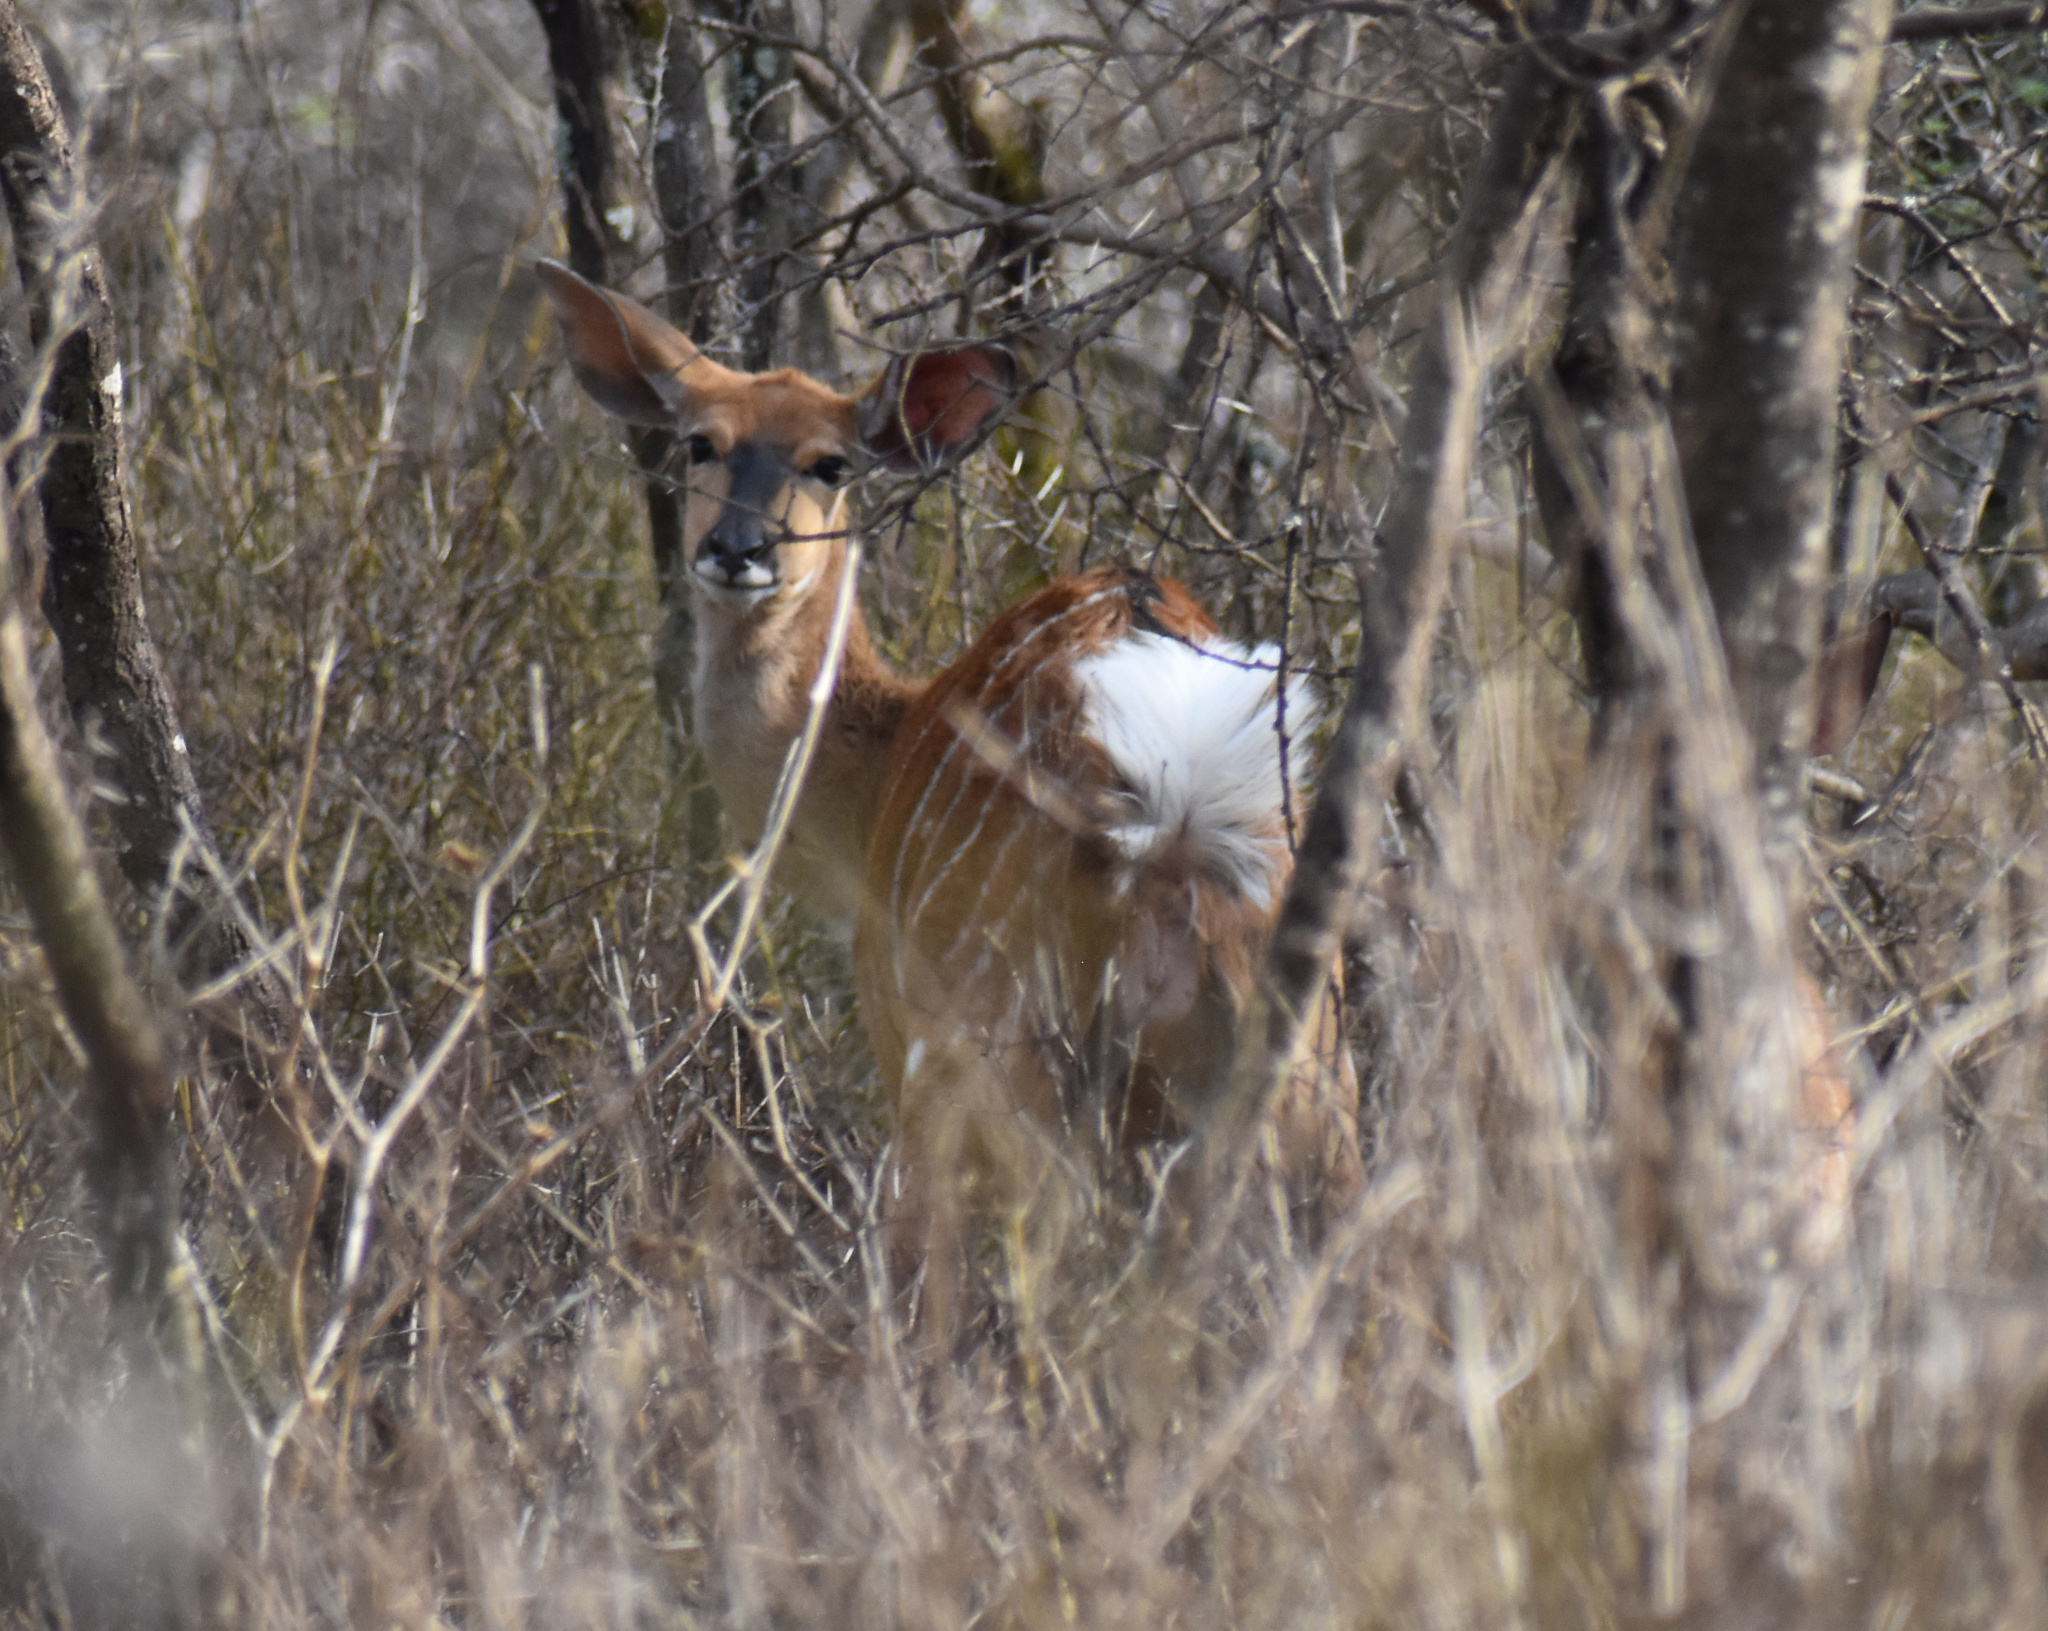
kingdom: Animalia
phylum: Chordata
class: Mammalia
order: Artiodactyla
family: Bovidae
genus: Tragelaphus
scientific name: Tragelaphus angasii
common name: Nyala
